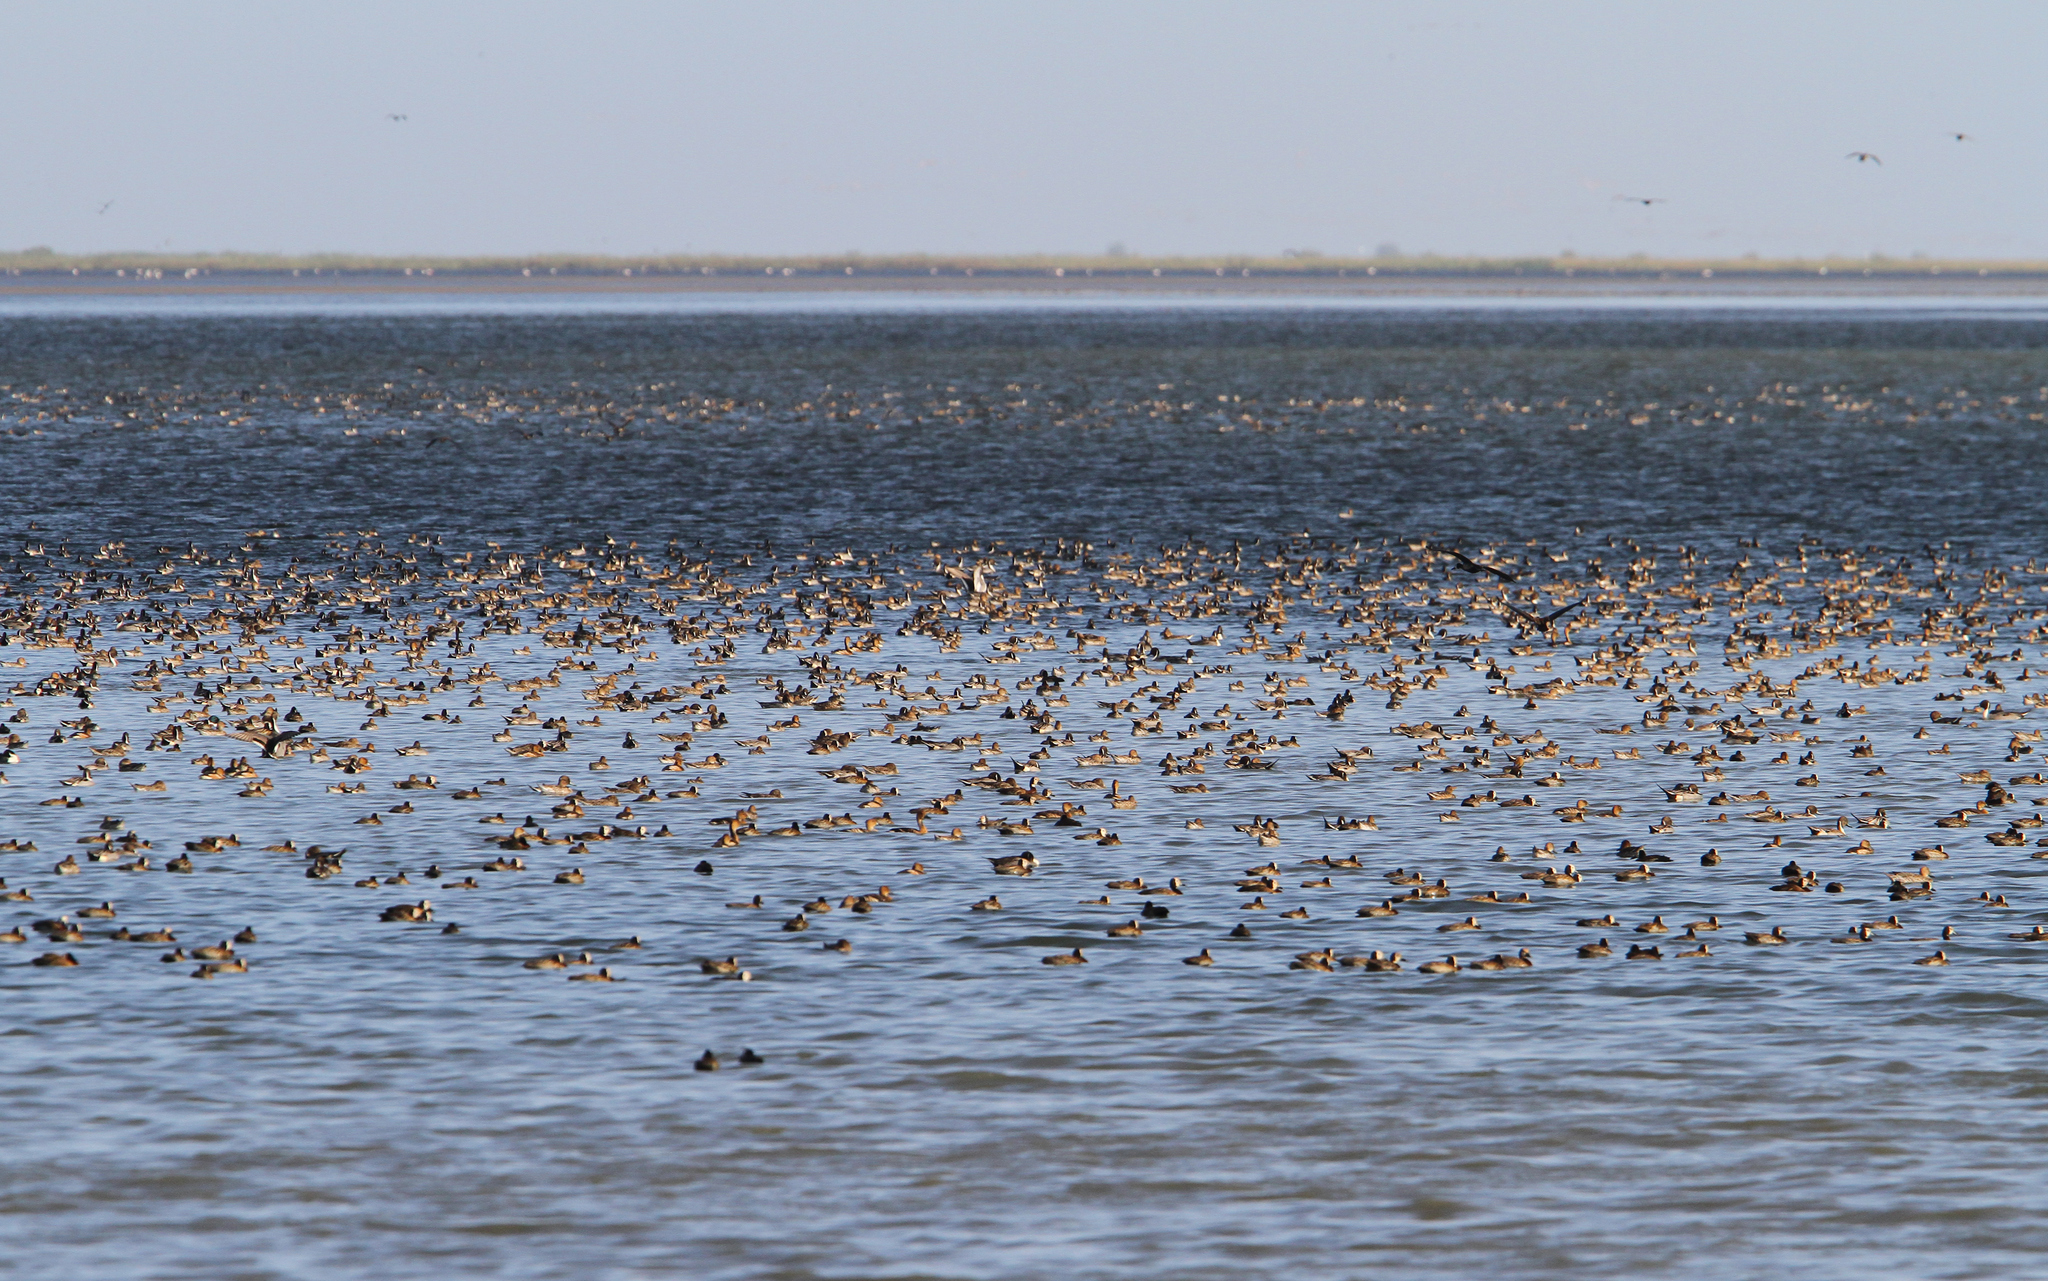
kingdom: Animalia
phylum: Chordata
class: Aves
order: Anseriformes
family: Anatidae
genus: Anas
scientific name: Anas acuta
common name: Northern pintail
